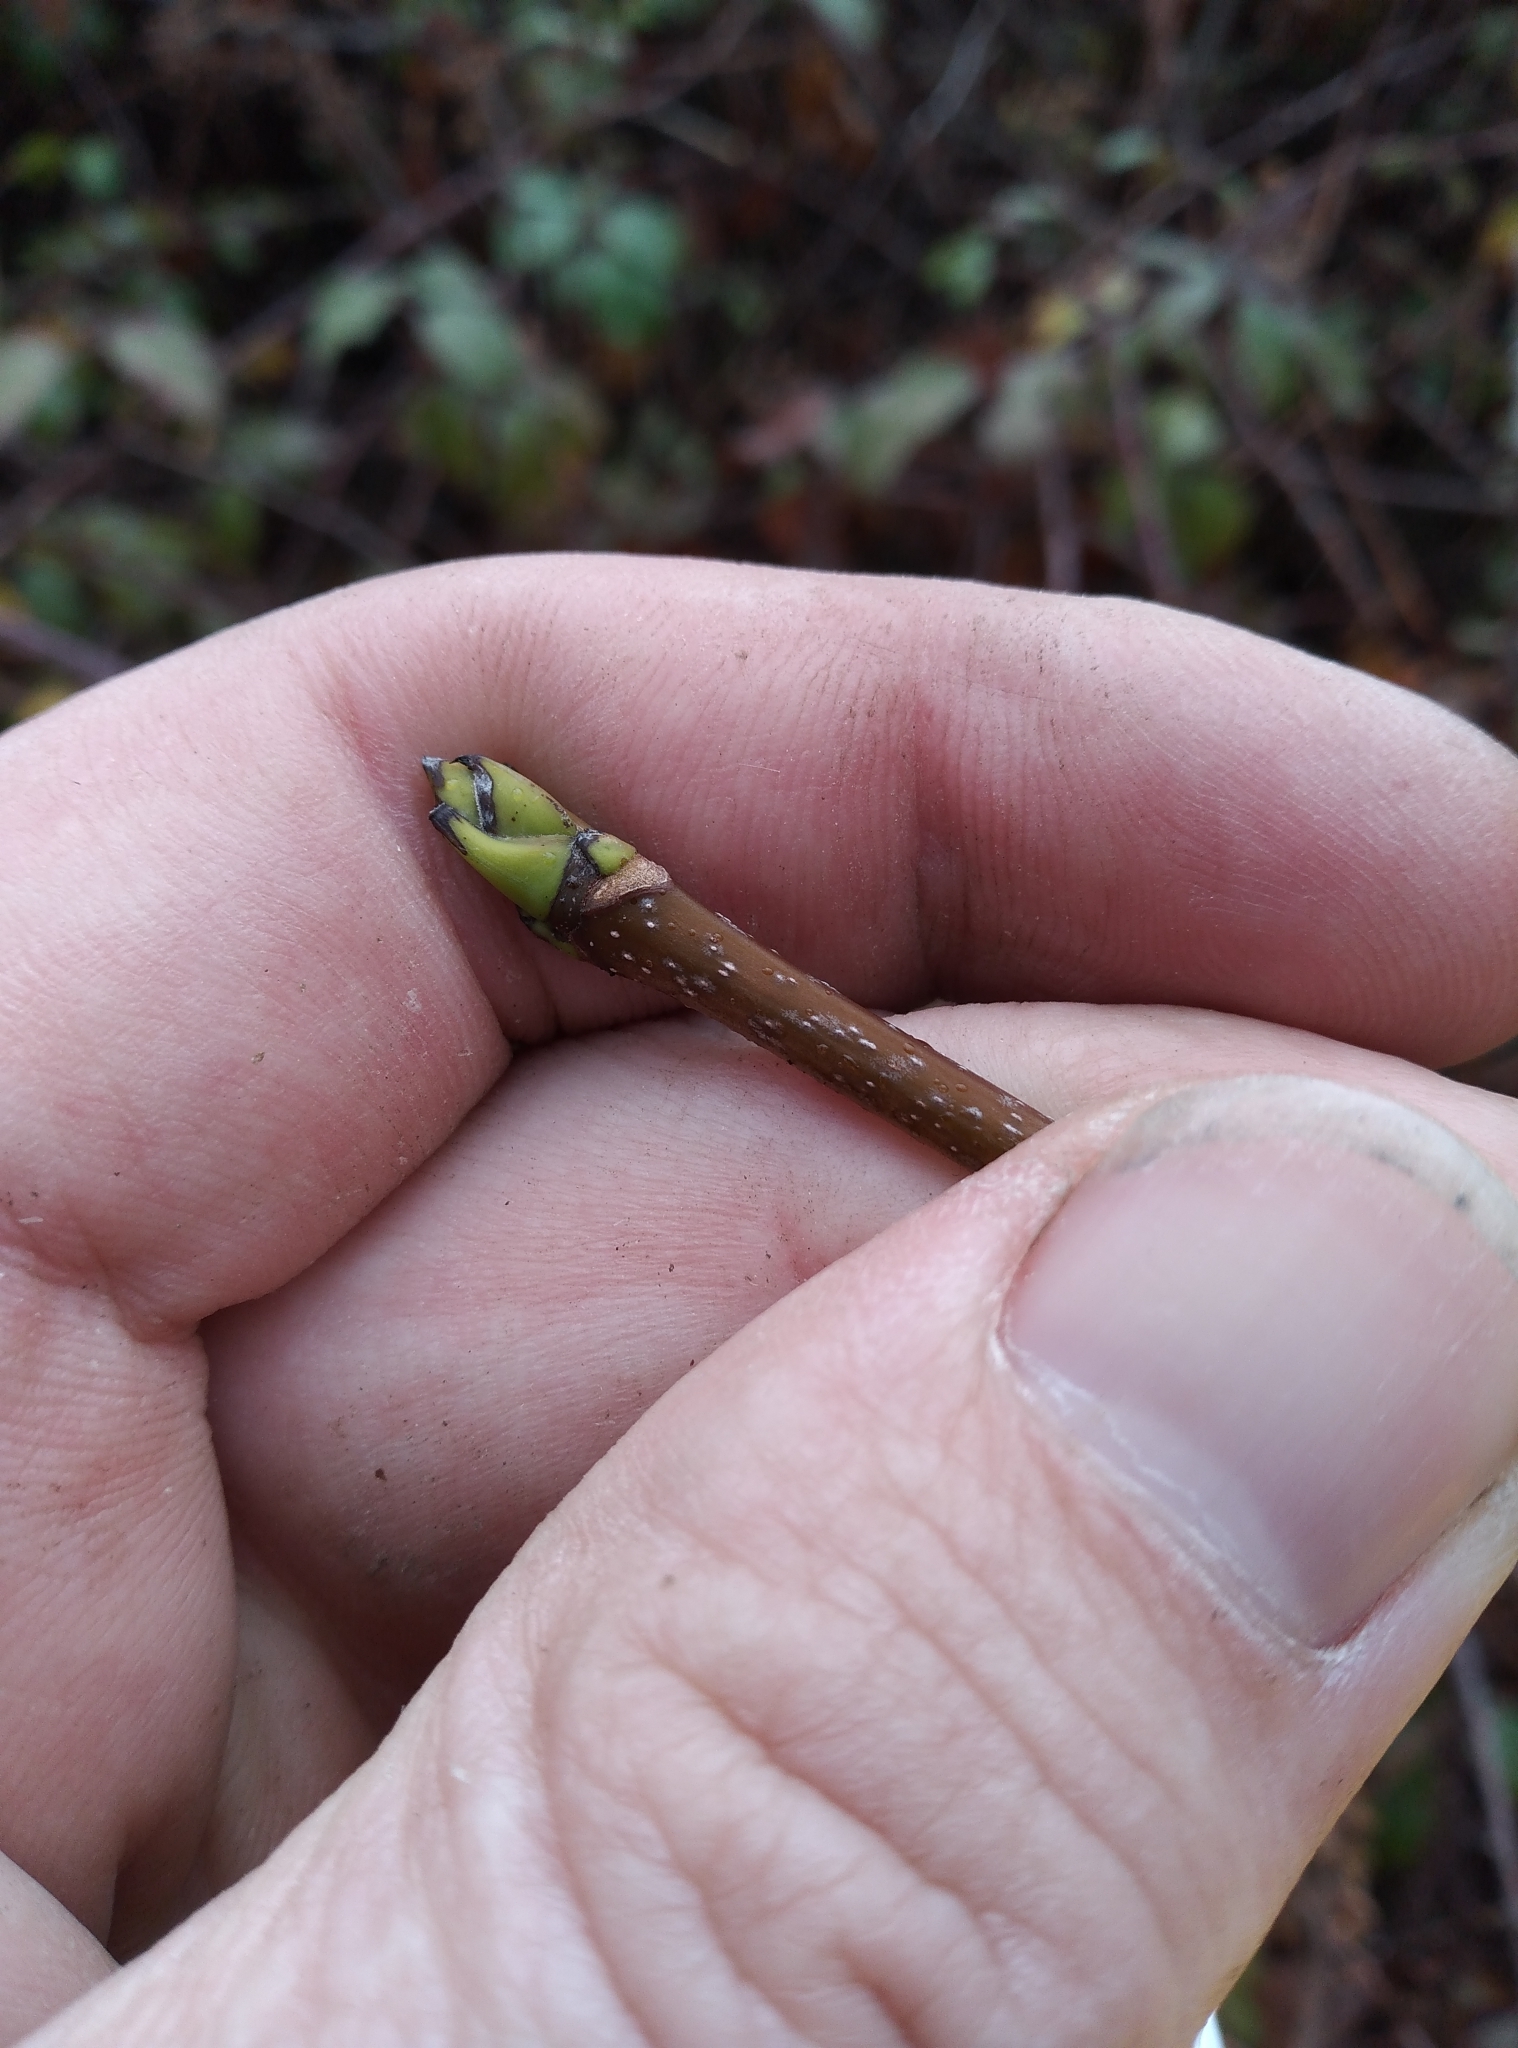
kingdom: Plantae
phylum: Tracheophyta
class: Magnoliopsida
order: Sapindales
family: Sapindaceae
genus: Acer
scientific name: Acer pseudoplatanus
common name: Sycamore
